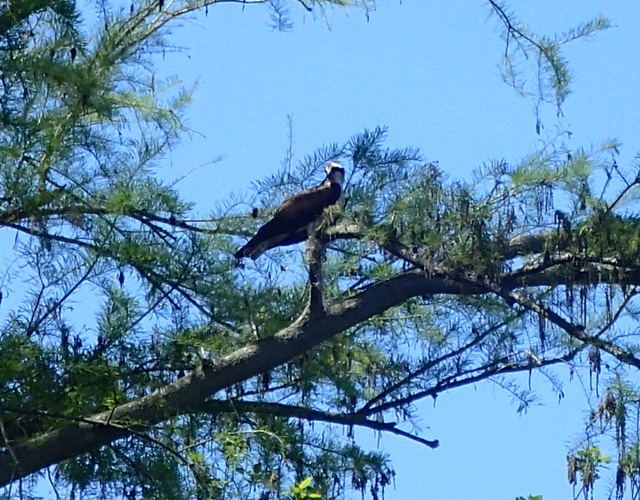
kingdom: Animalia
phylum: Chordata
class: Aves
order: Accipitriformes
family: Pandionidae
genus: Pandion
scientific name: Pandion haliaetus
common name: Osprey
